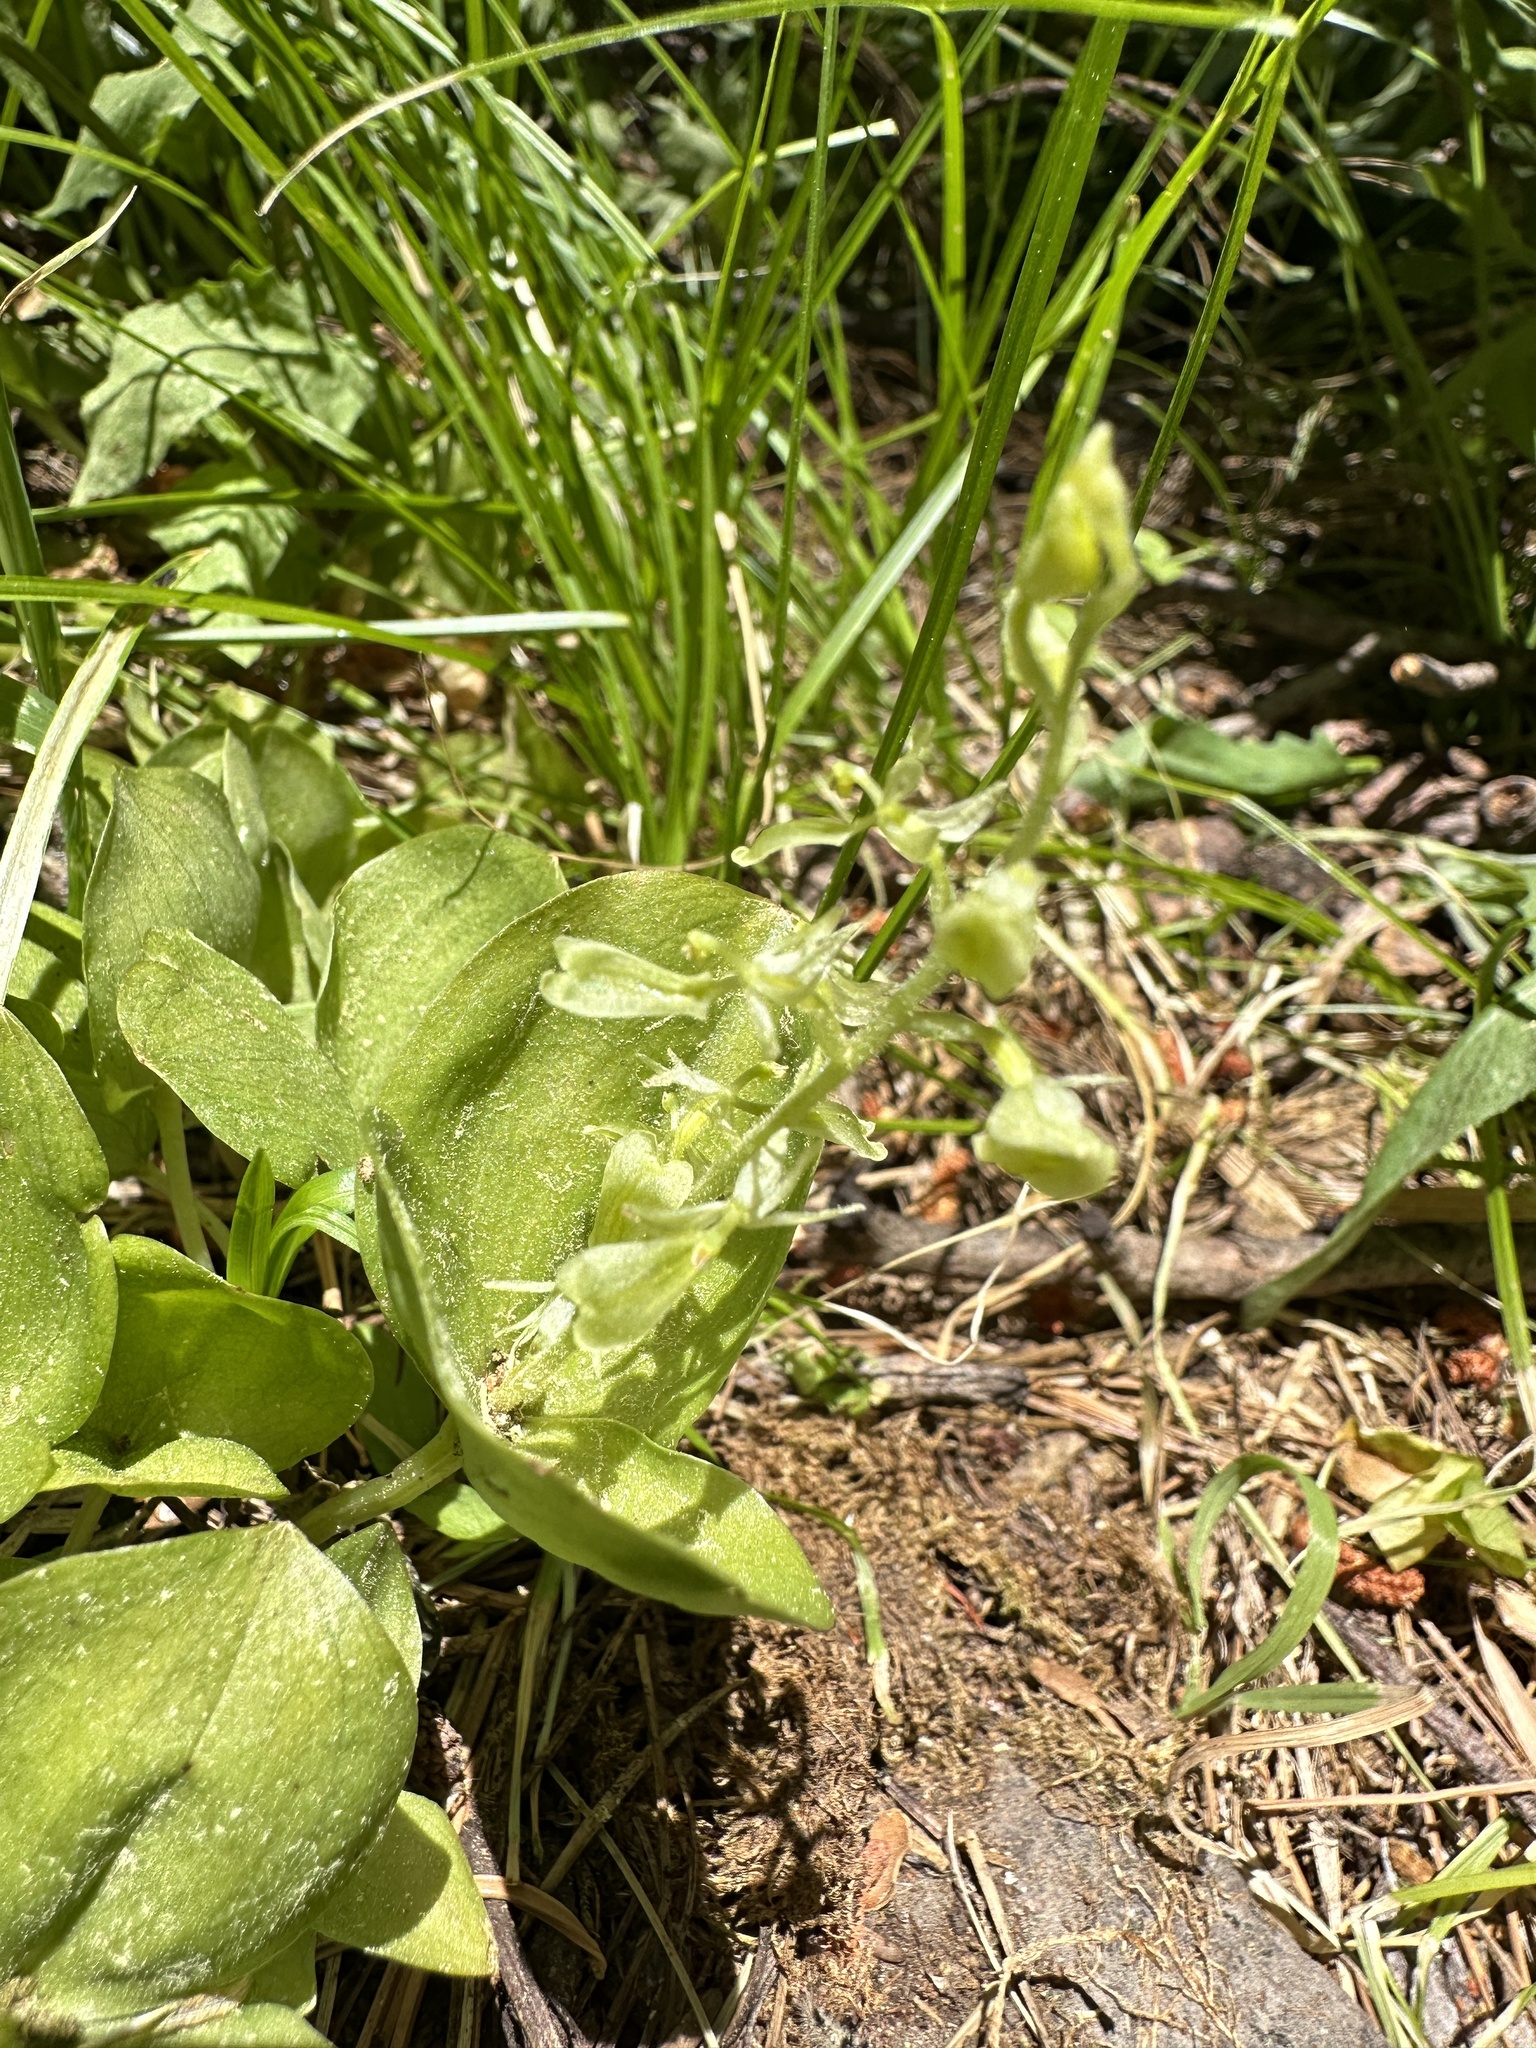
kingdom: Plantae
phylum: Tracheophyta
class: Liliopsida
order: Asparagales
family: Orchidaceae
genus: Neottia
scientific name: Neottia convallarioides
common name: Broadleaf twayblade
